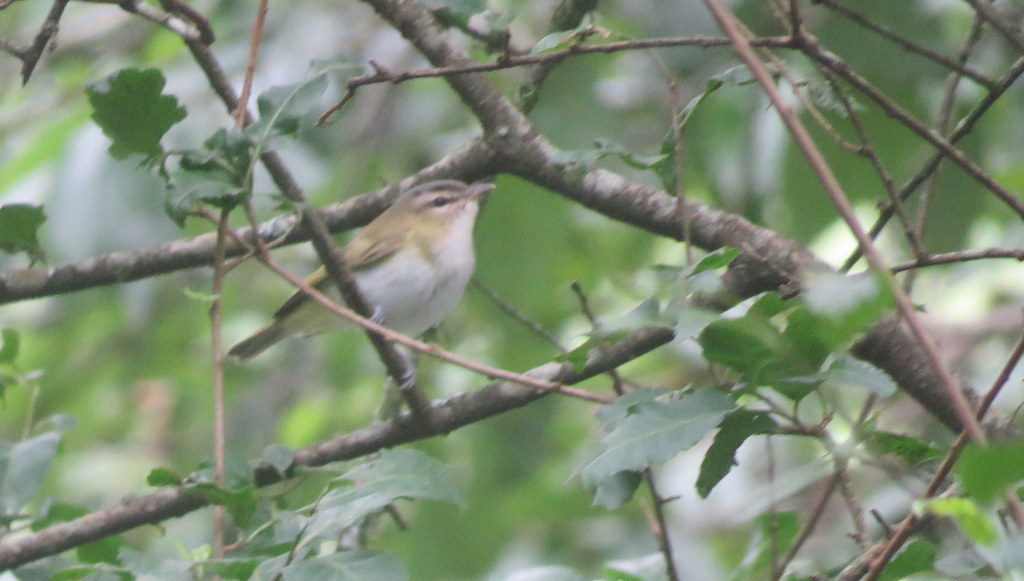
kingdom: Animalia
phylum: Chordata
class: Aves
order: Passeriformes
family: Vireonidae
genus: Vireo
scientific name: Vireo olivaceus
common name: Red-eyed vireo
